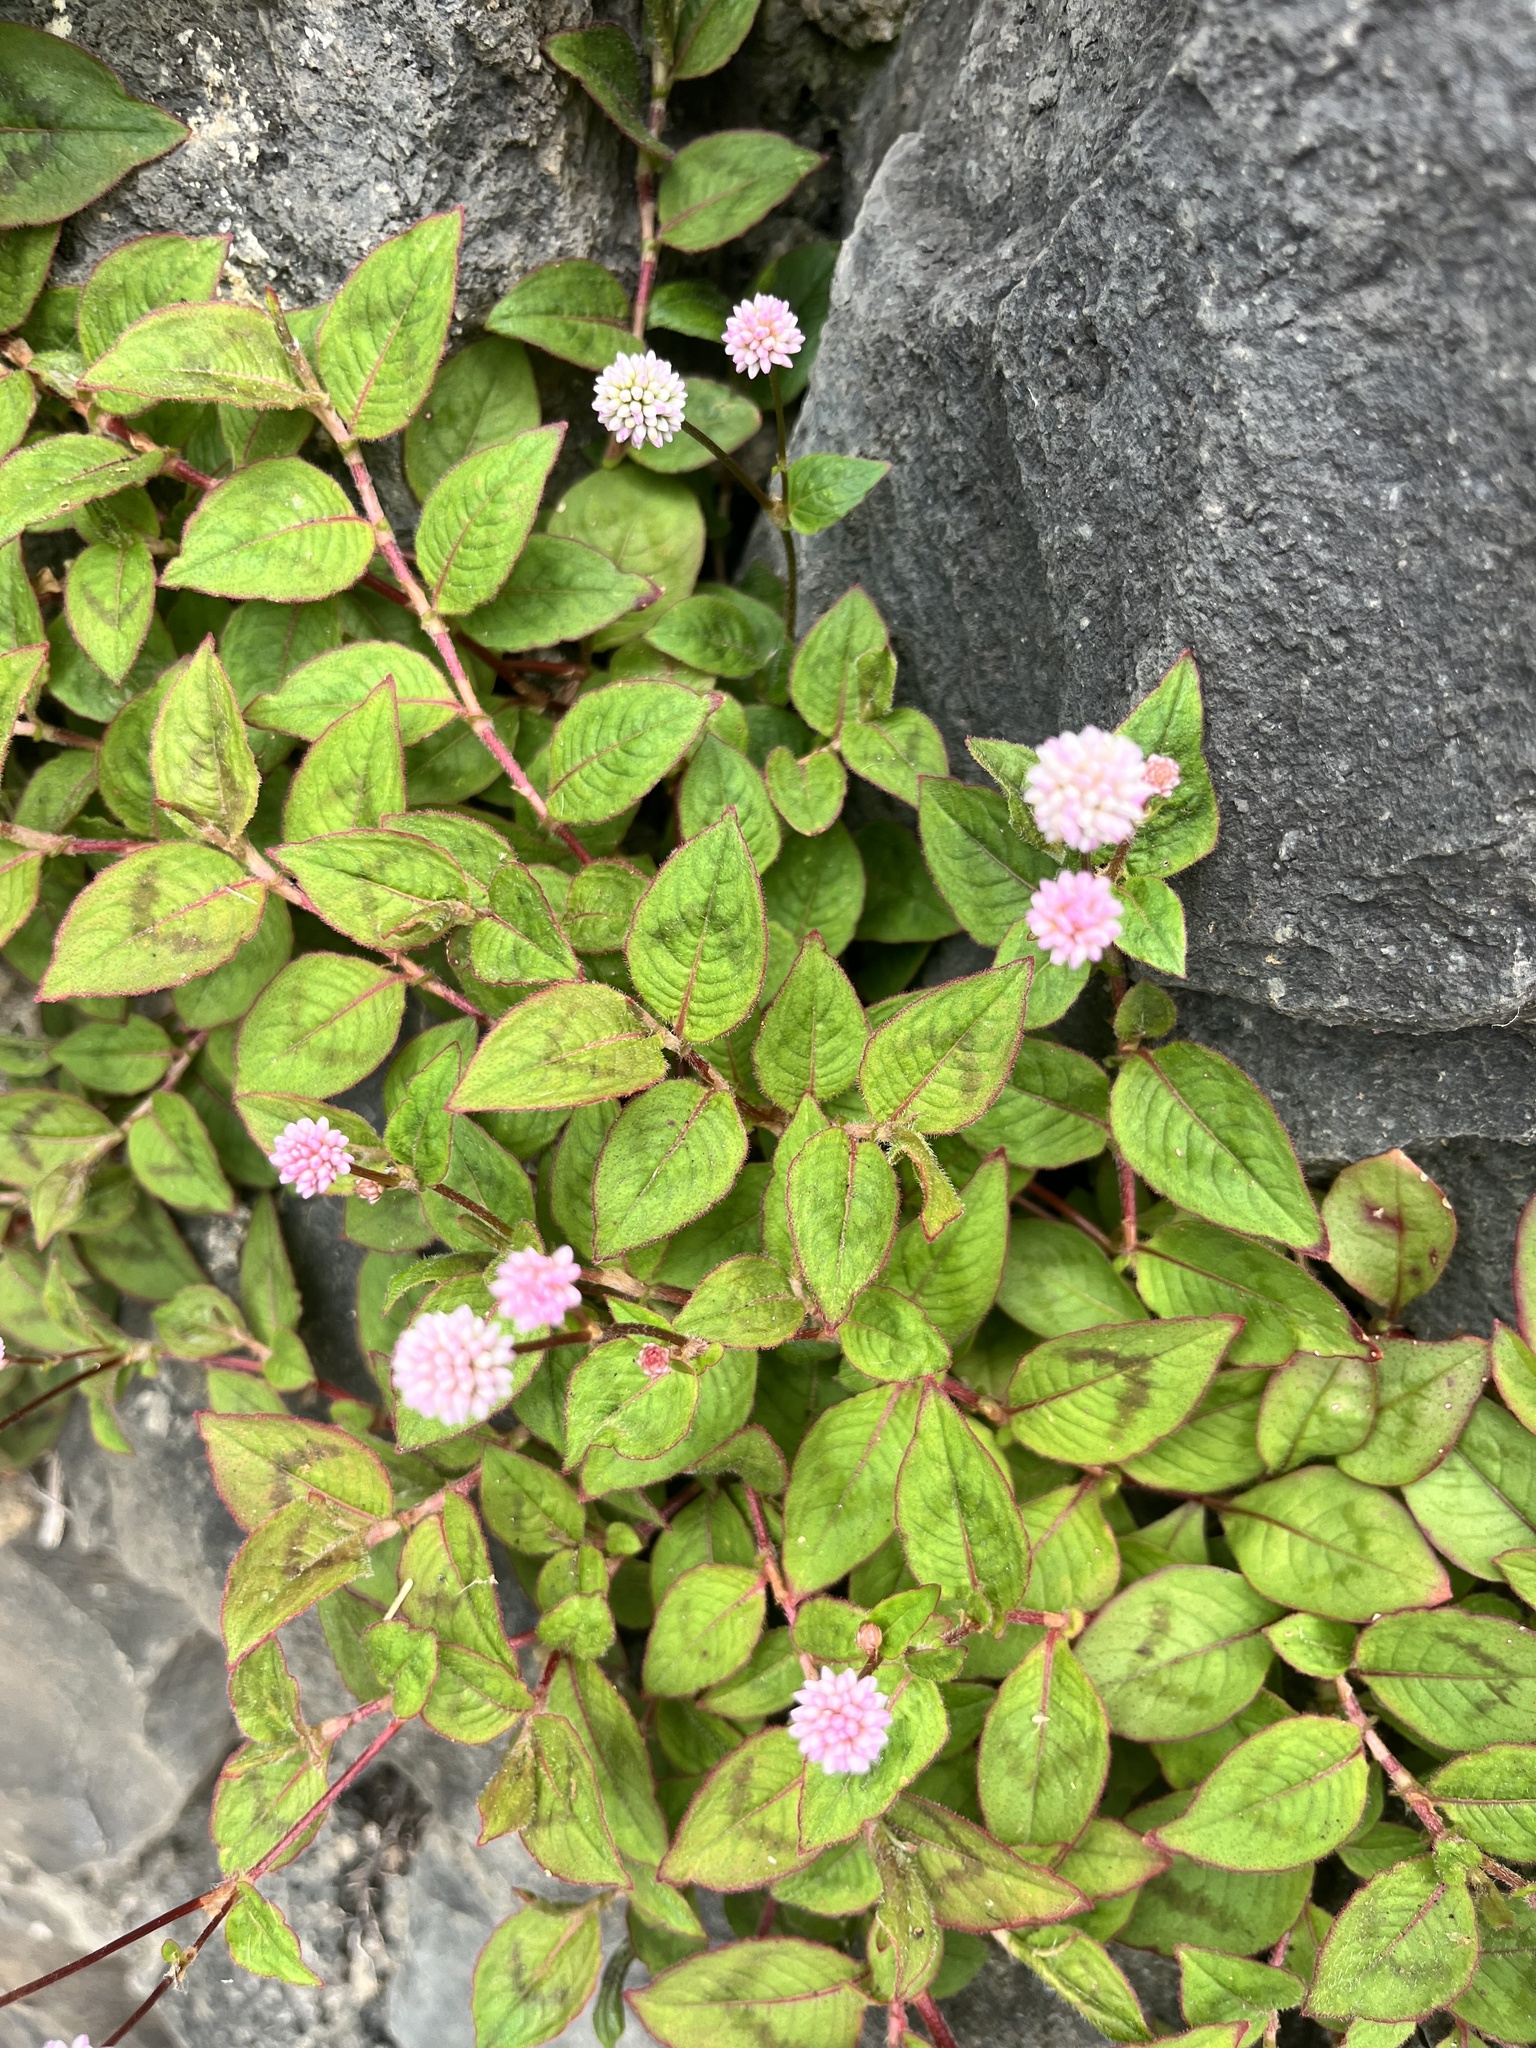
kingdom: Plantae
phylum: Tracheophyta
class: Magnoliopsida
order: Caryophyllales
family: Polygonaceae
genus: Persicaria
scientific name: Persicaria capitata
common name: Pinkhead smartweed
